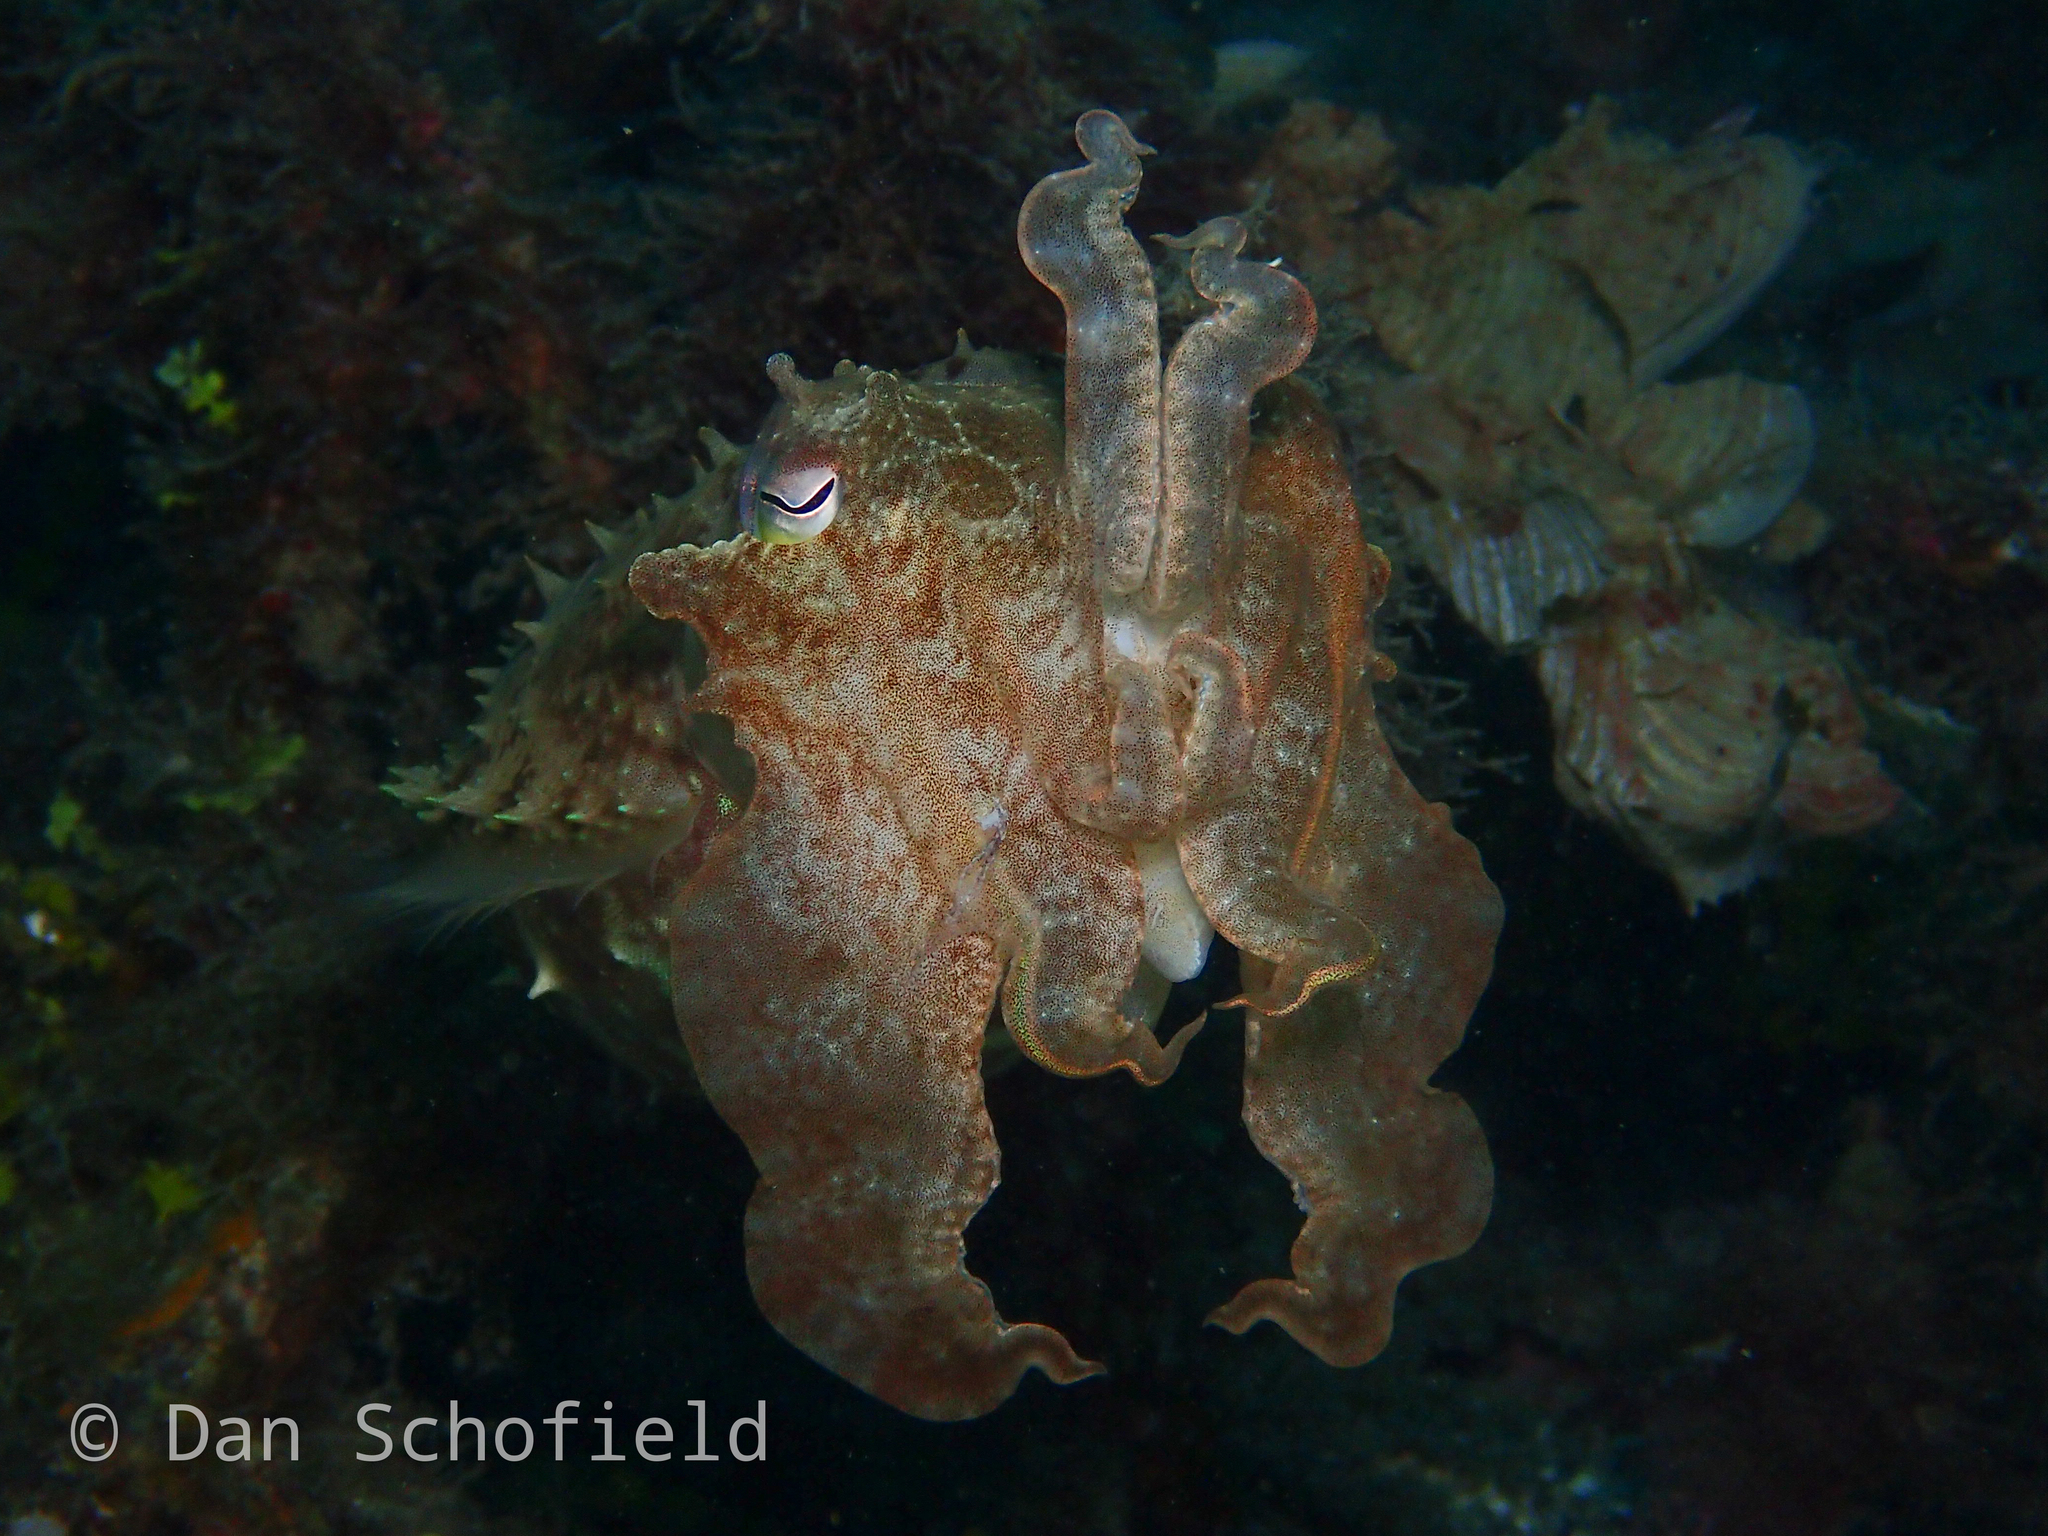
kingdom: Animalia
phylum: Mollusca
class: Cephalopoda
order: Sepiida
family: Sepiidae
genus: Ascarosepion
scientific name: Ascarosepion latimanus
